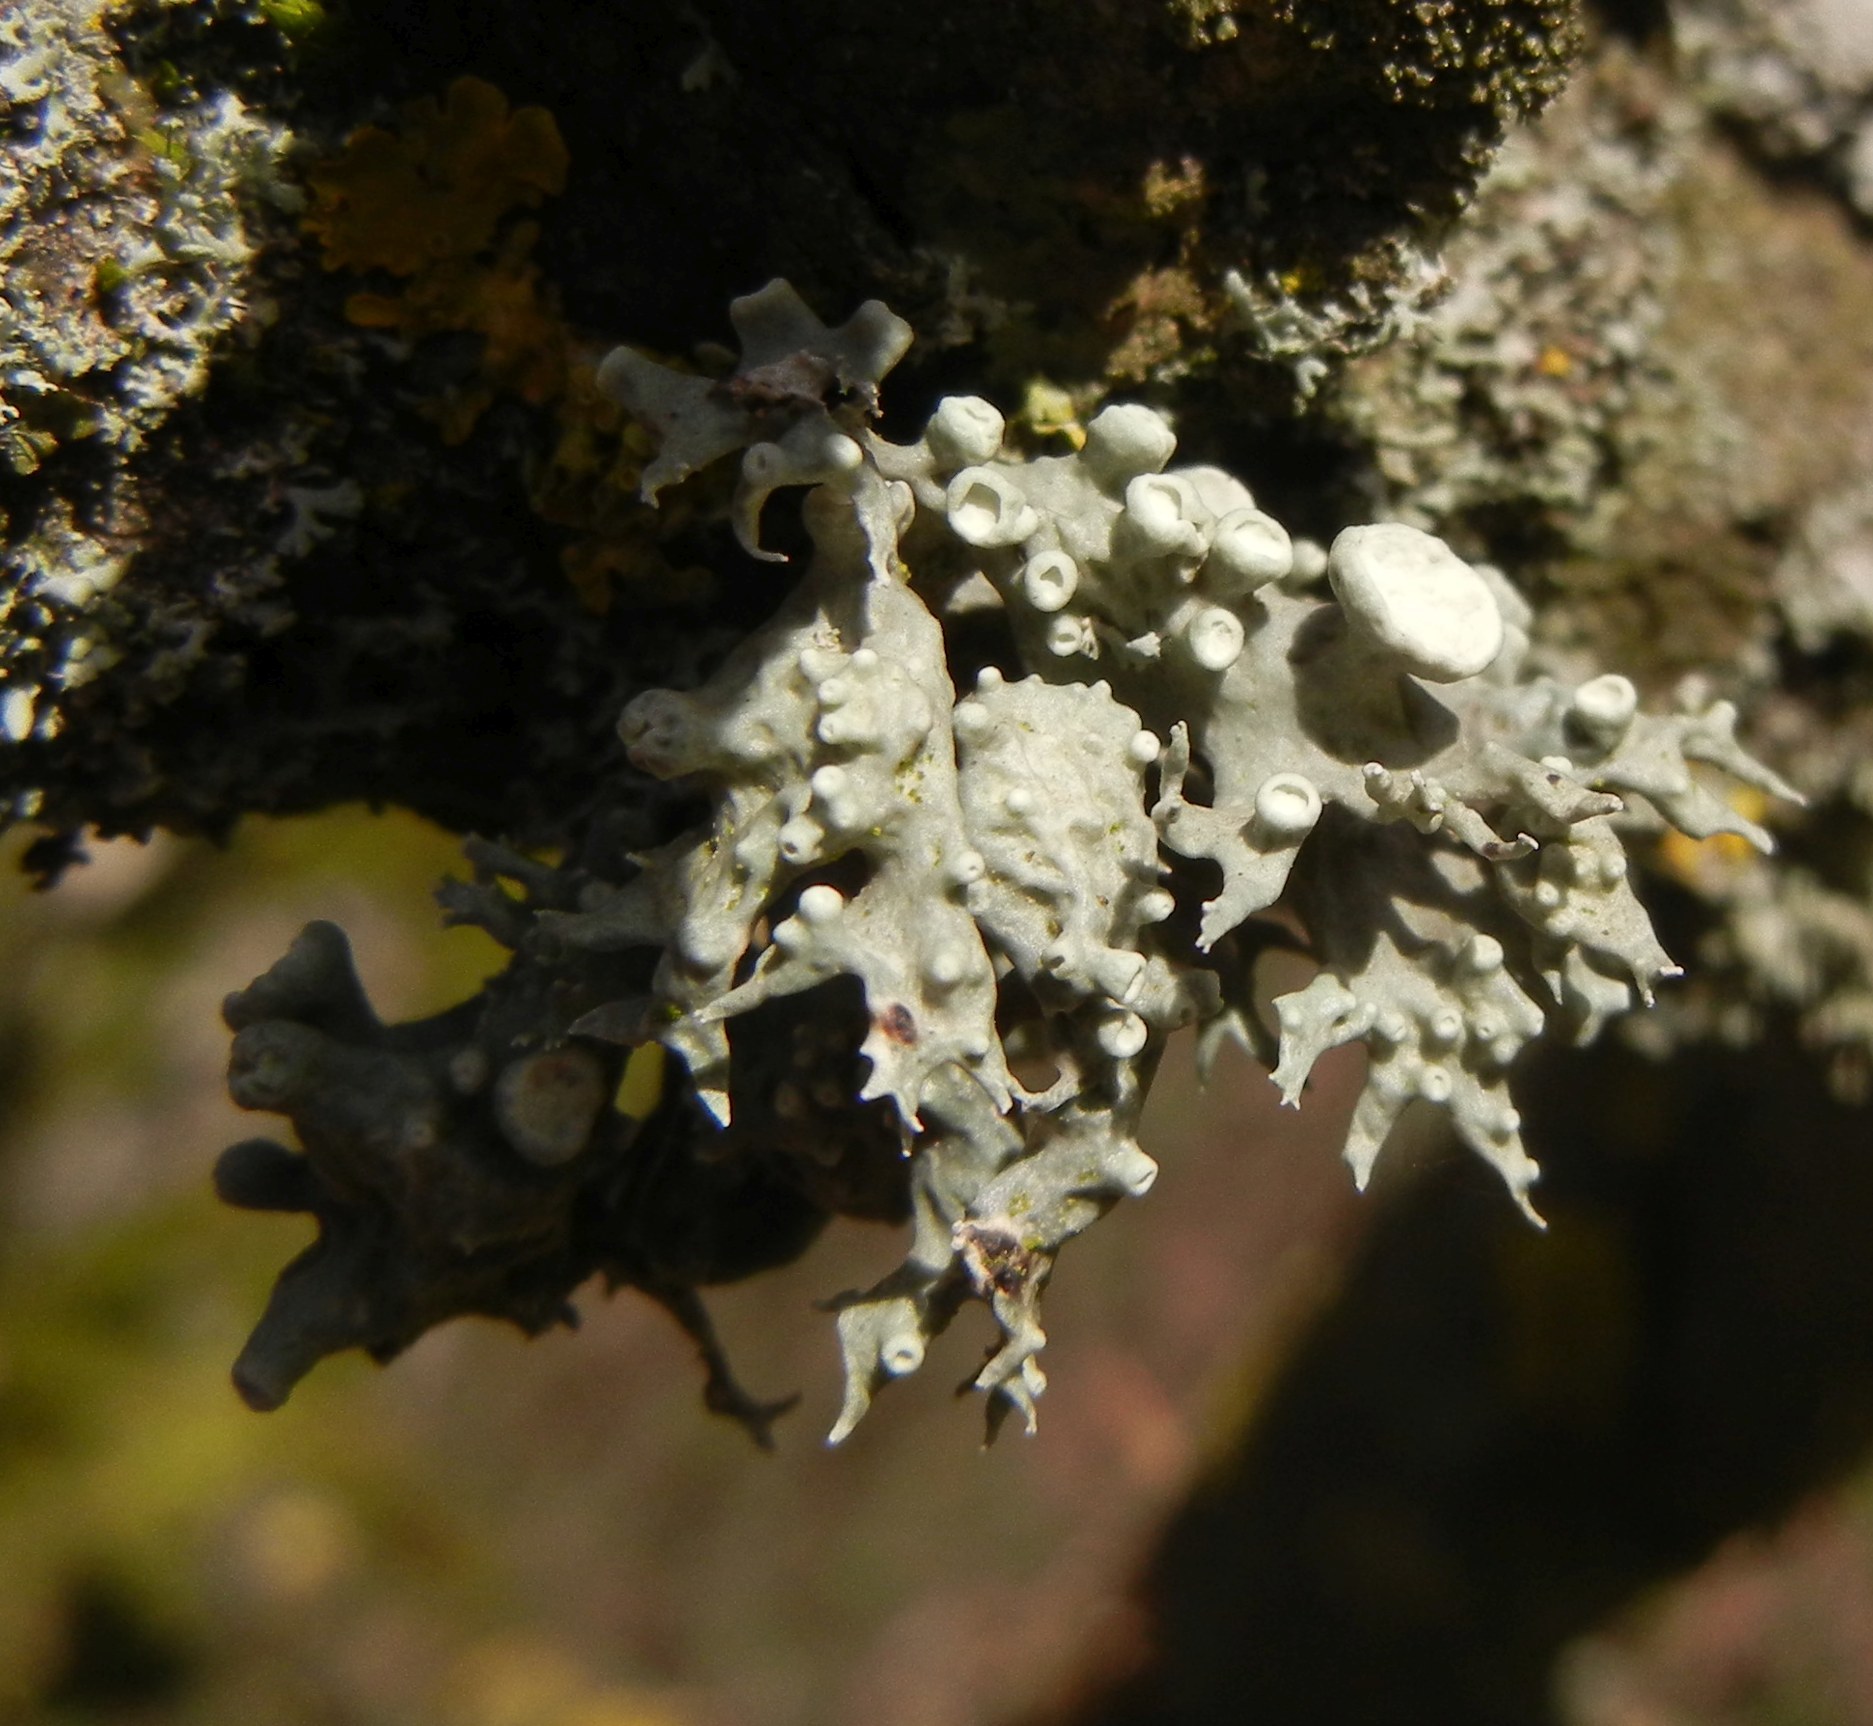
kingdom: Fungi
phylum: Ascomycota
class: Lecanoromycetes
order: Lecanorales
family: Ramalinaceae
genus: Ramalina
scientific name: Ramalina fastigiata
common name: Dotted ribbon lichen
